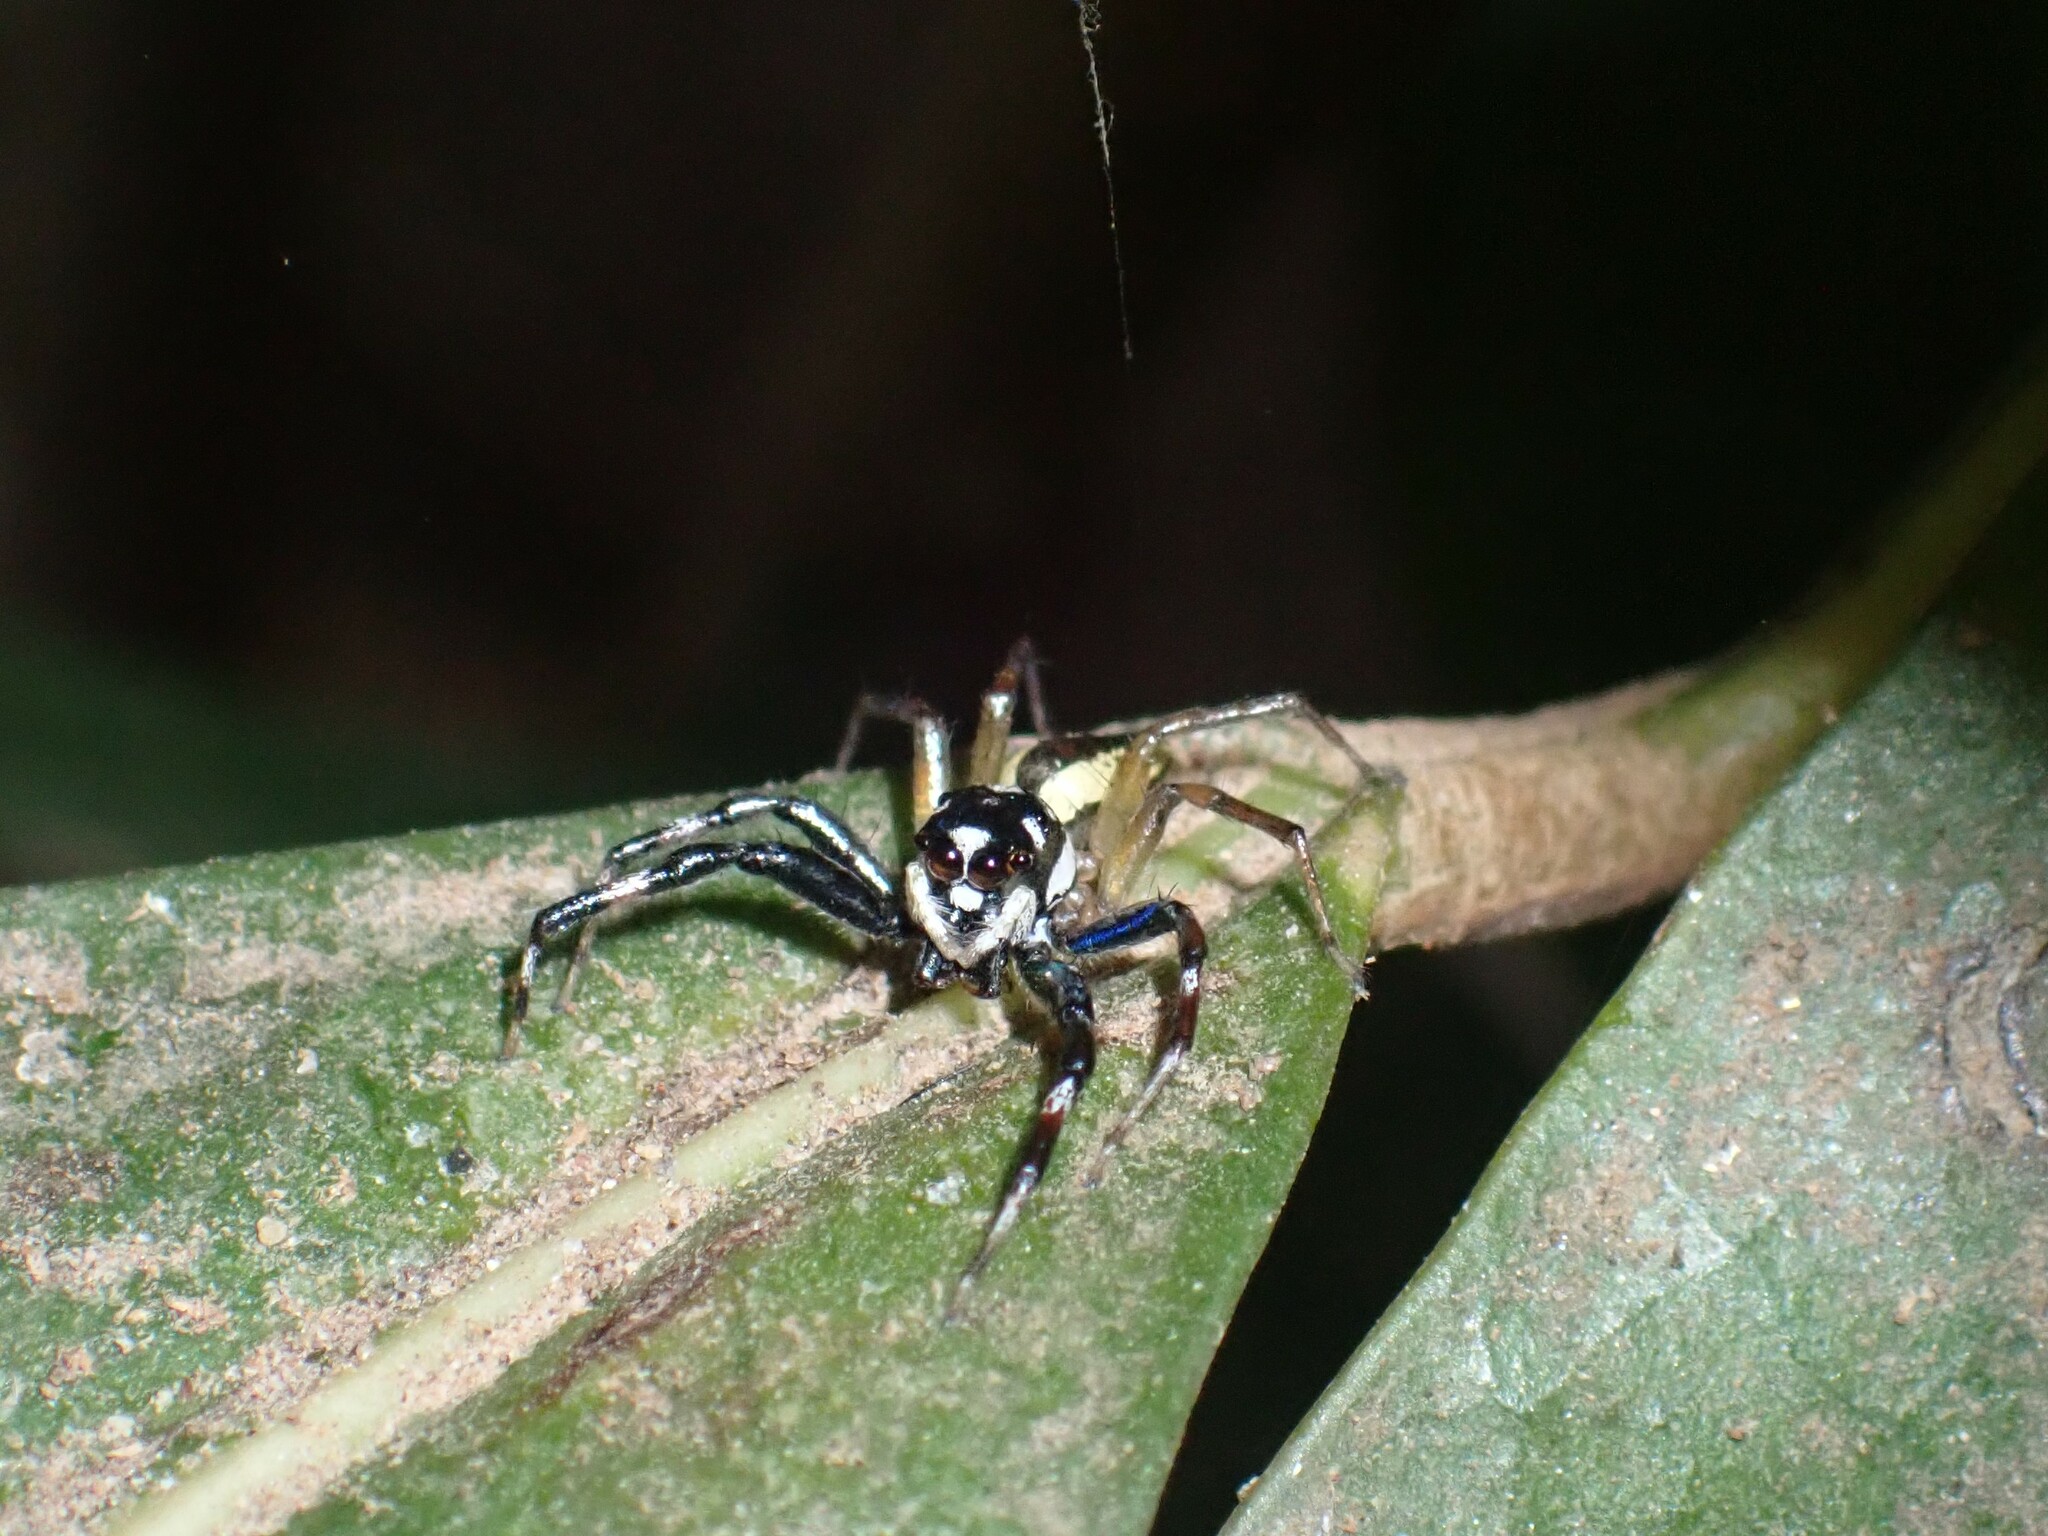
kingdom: Animalia
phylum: Arthropoda
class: Arachnida
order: Araneae
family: Salticidae
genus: Phintelloides
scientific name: Phintelloides versicolor
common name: Jumping spider
